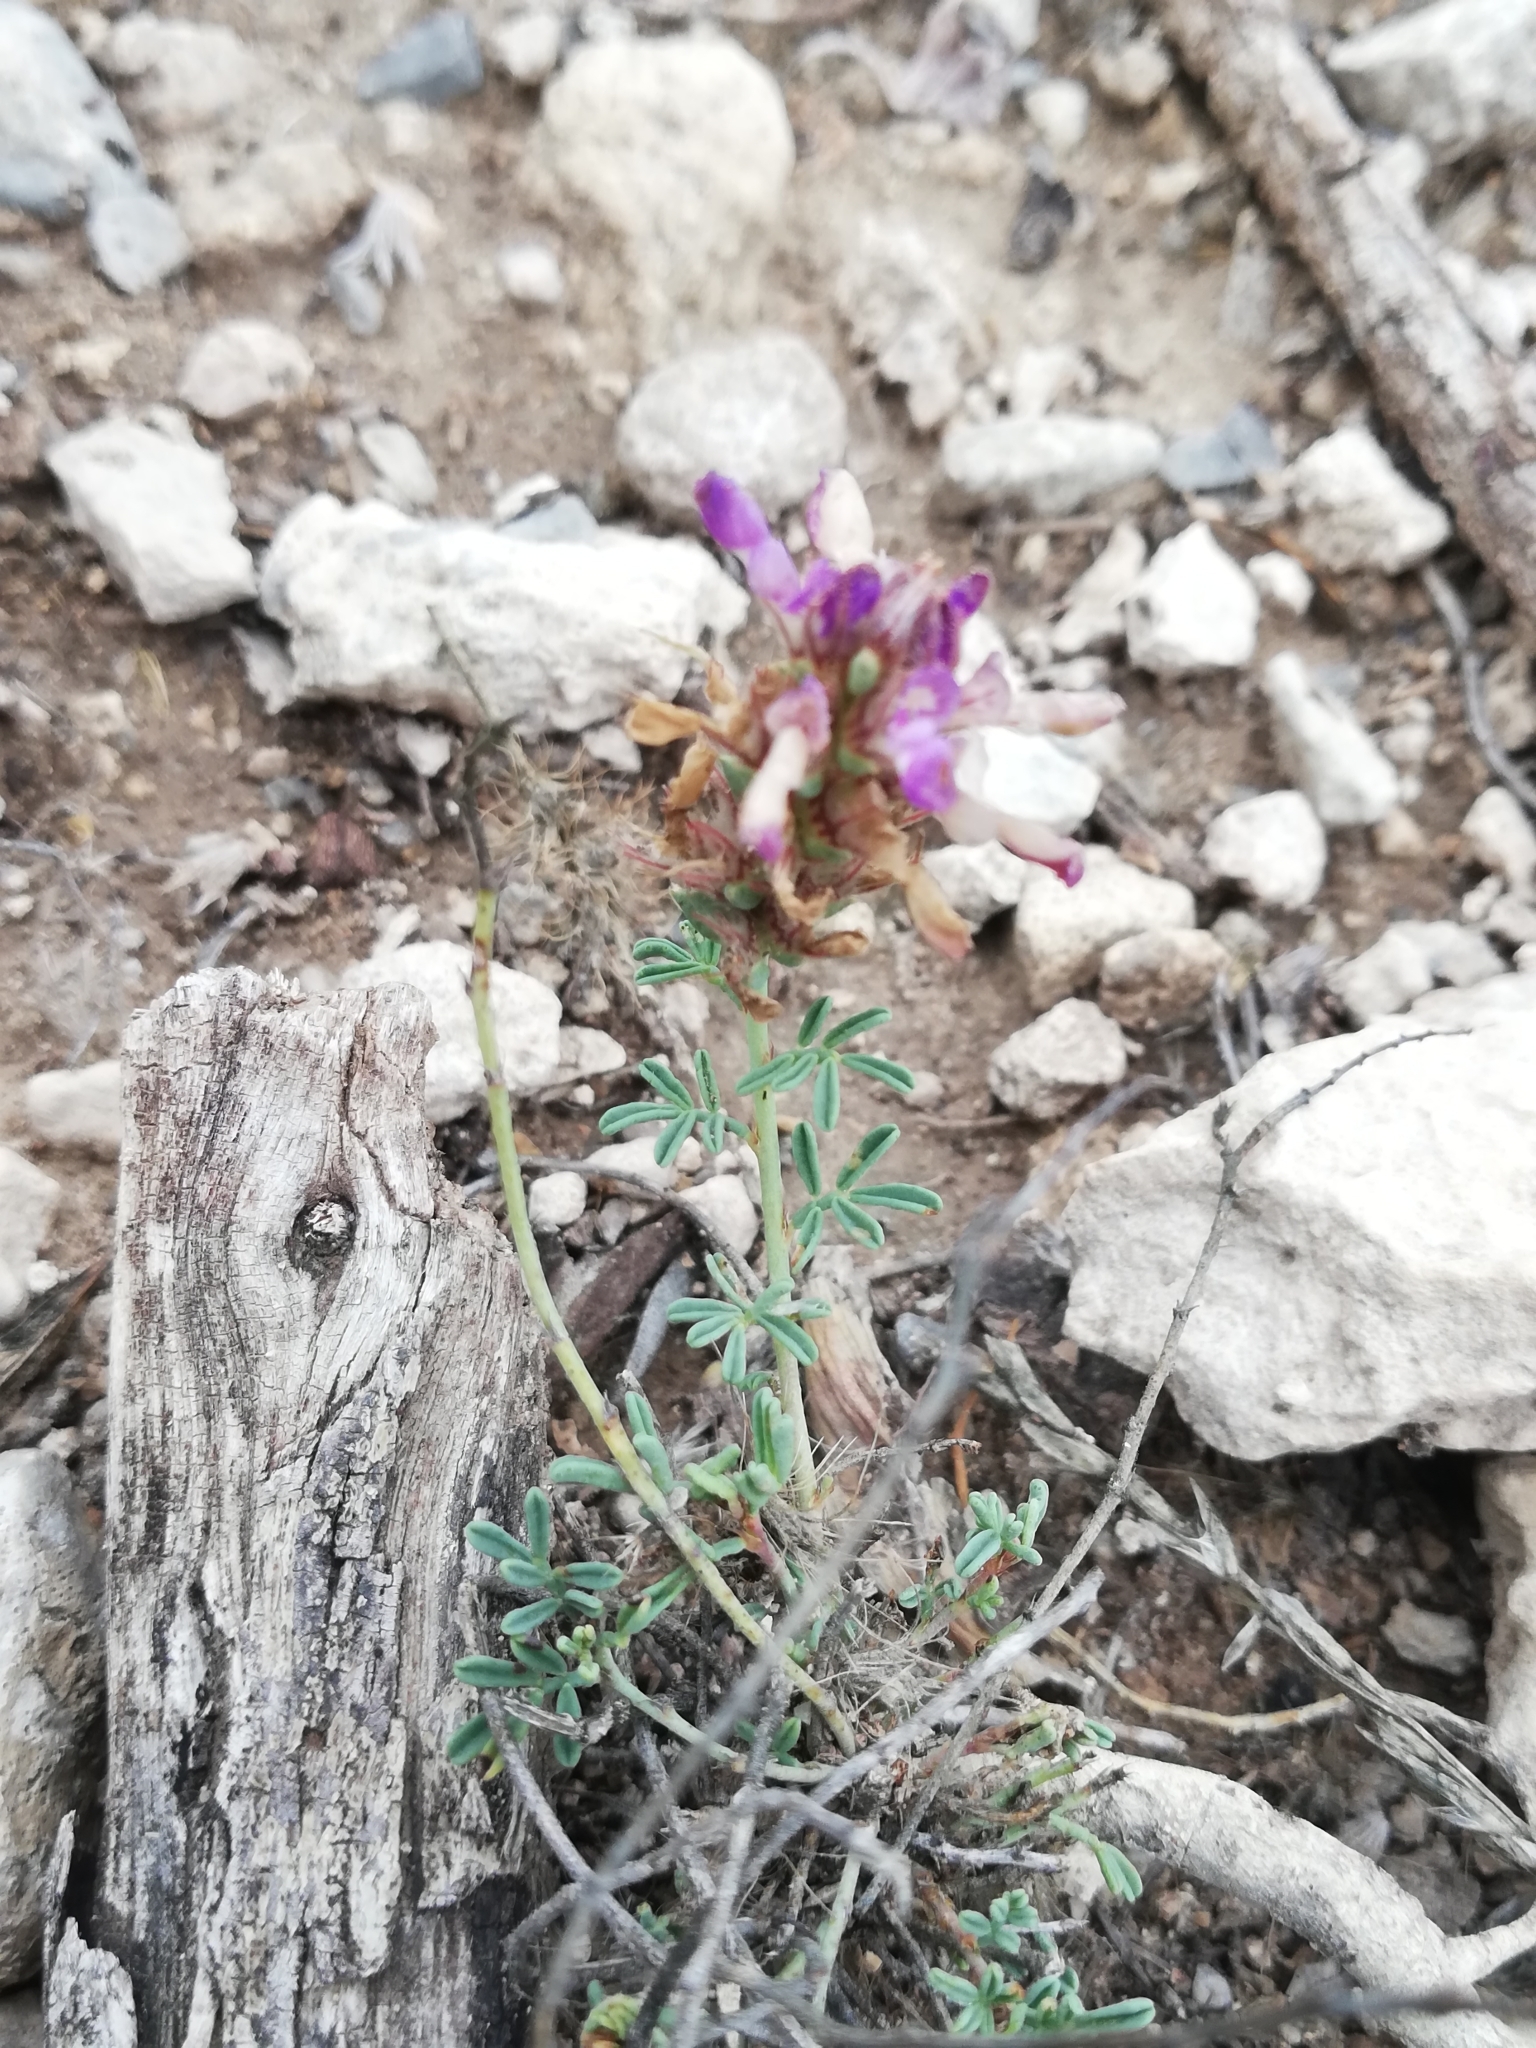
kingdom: Plantae
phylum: Tracheophyta
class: Magnoliopsida
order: Fabales
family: Fabaceae
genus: Dalea
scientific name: Dalea pogonathera
